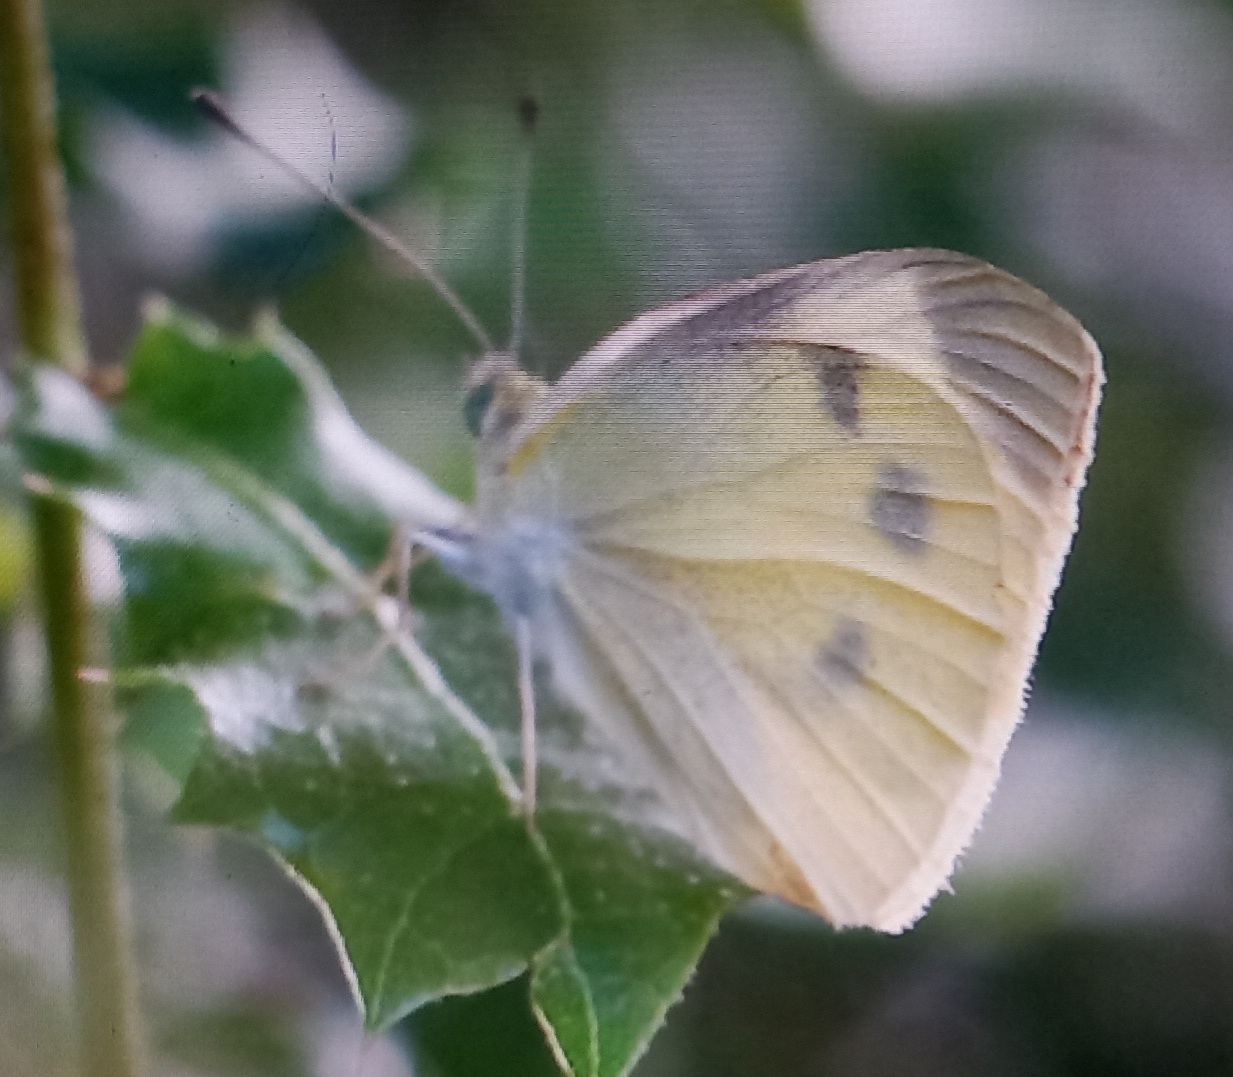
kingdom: Animalia
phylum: Arthropoda
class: Insecta
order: Lepidoptera
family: Pieridae
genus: Pieris
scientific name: Pieris rapae
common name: Small white
